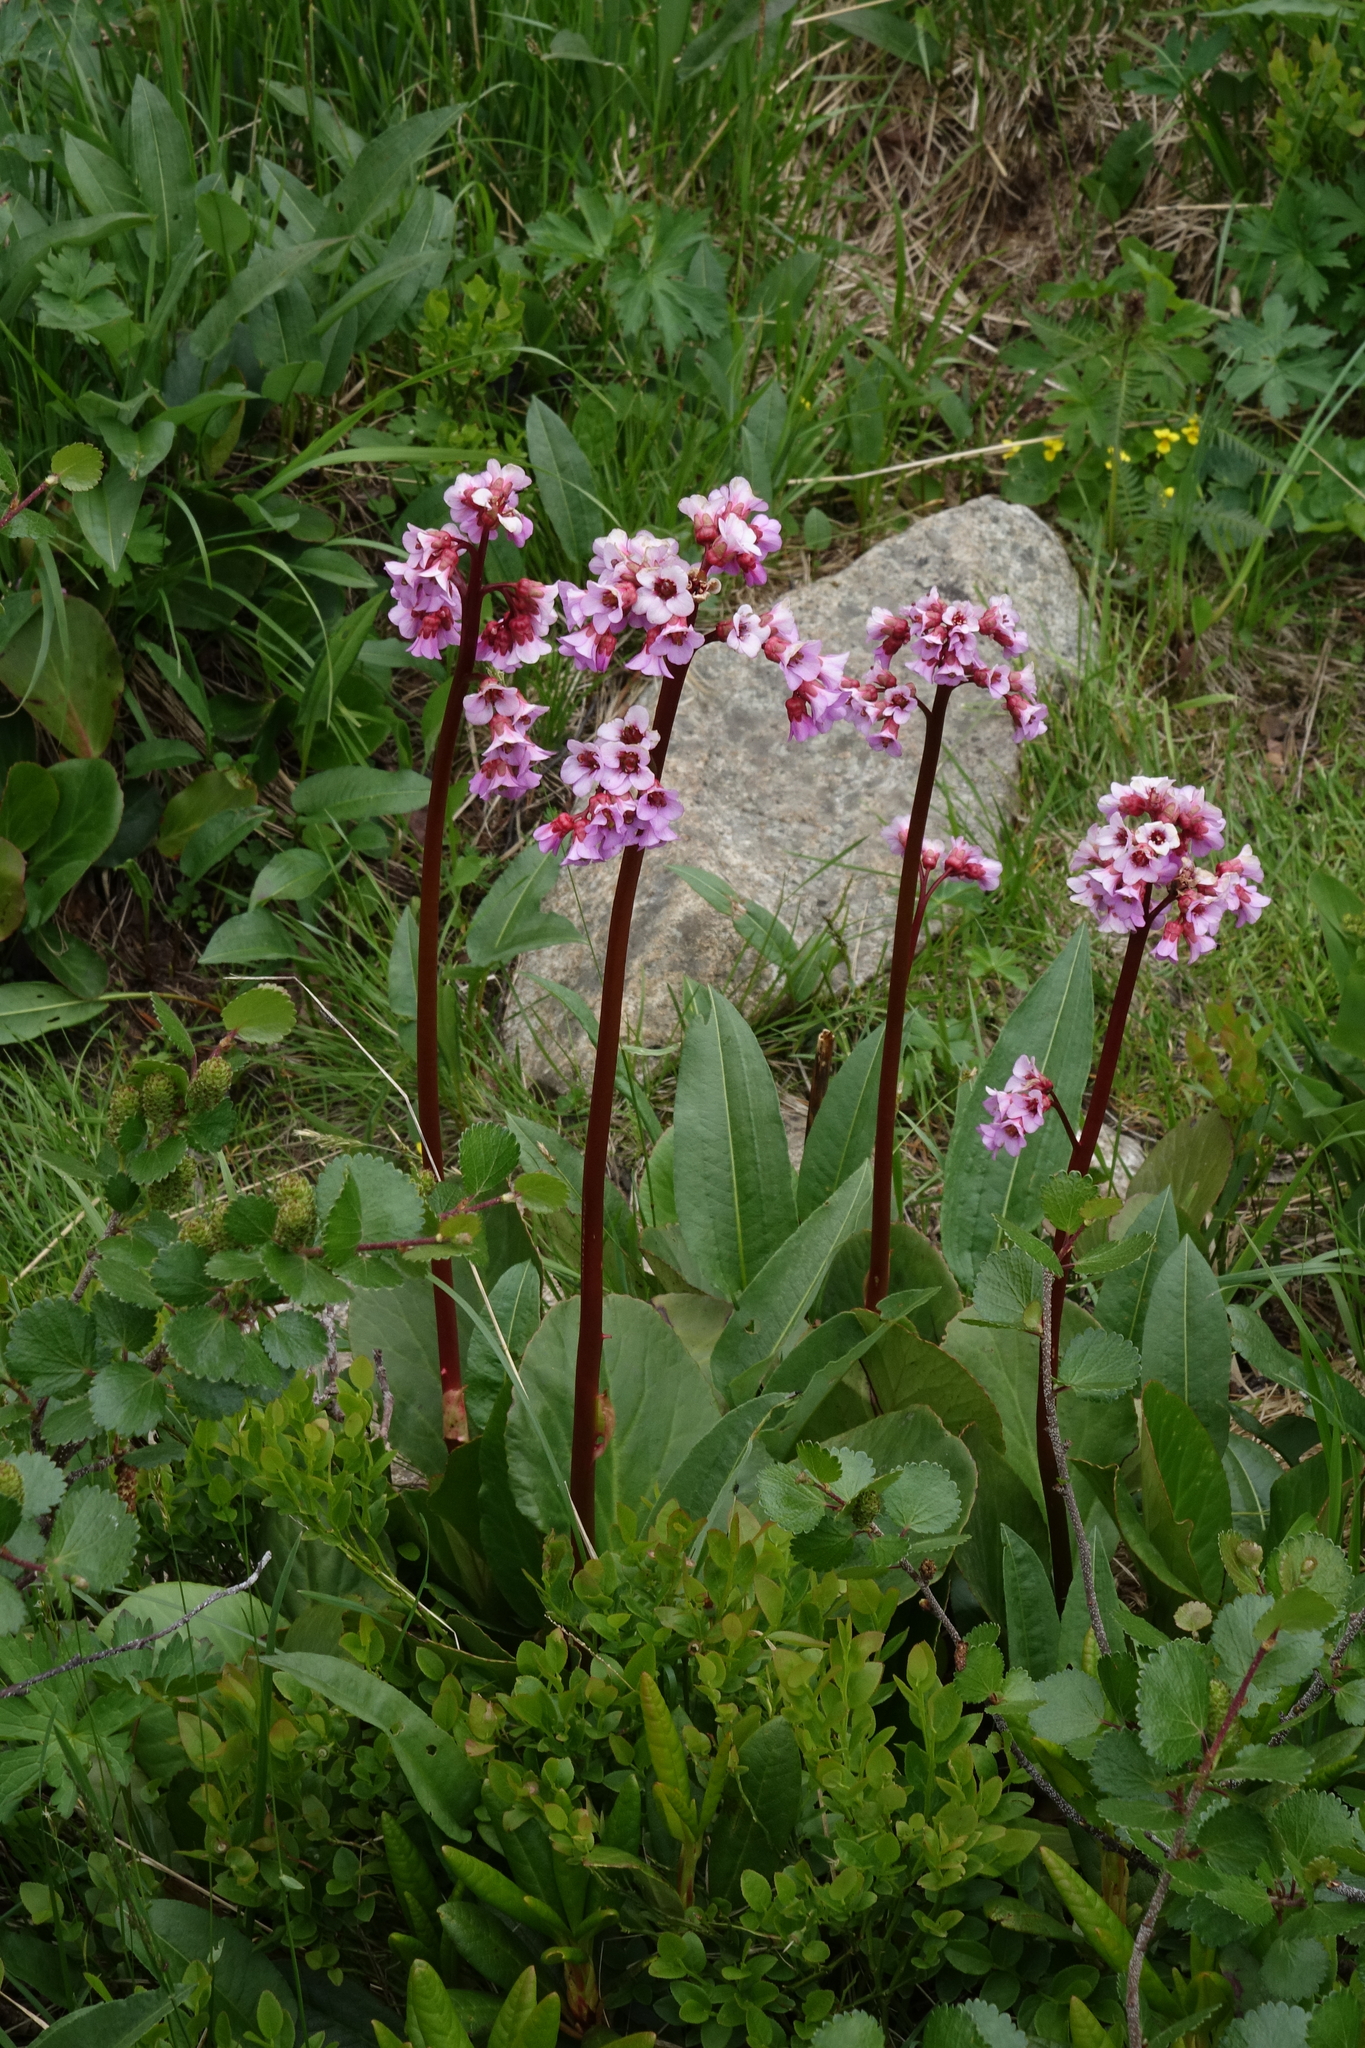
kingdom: Plantae
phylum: Tracheophyta
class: Magnoliopsida
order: Saxifragales
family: Saxifragaceae
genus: Bergenia
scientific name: Bergenia crassifolia
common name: Elephant-ears
